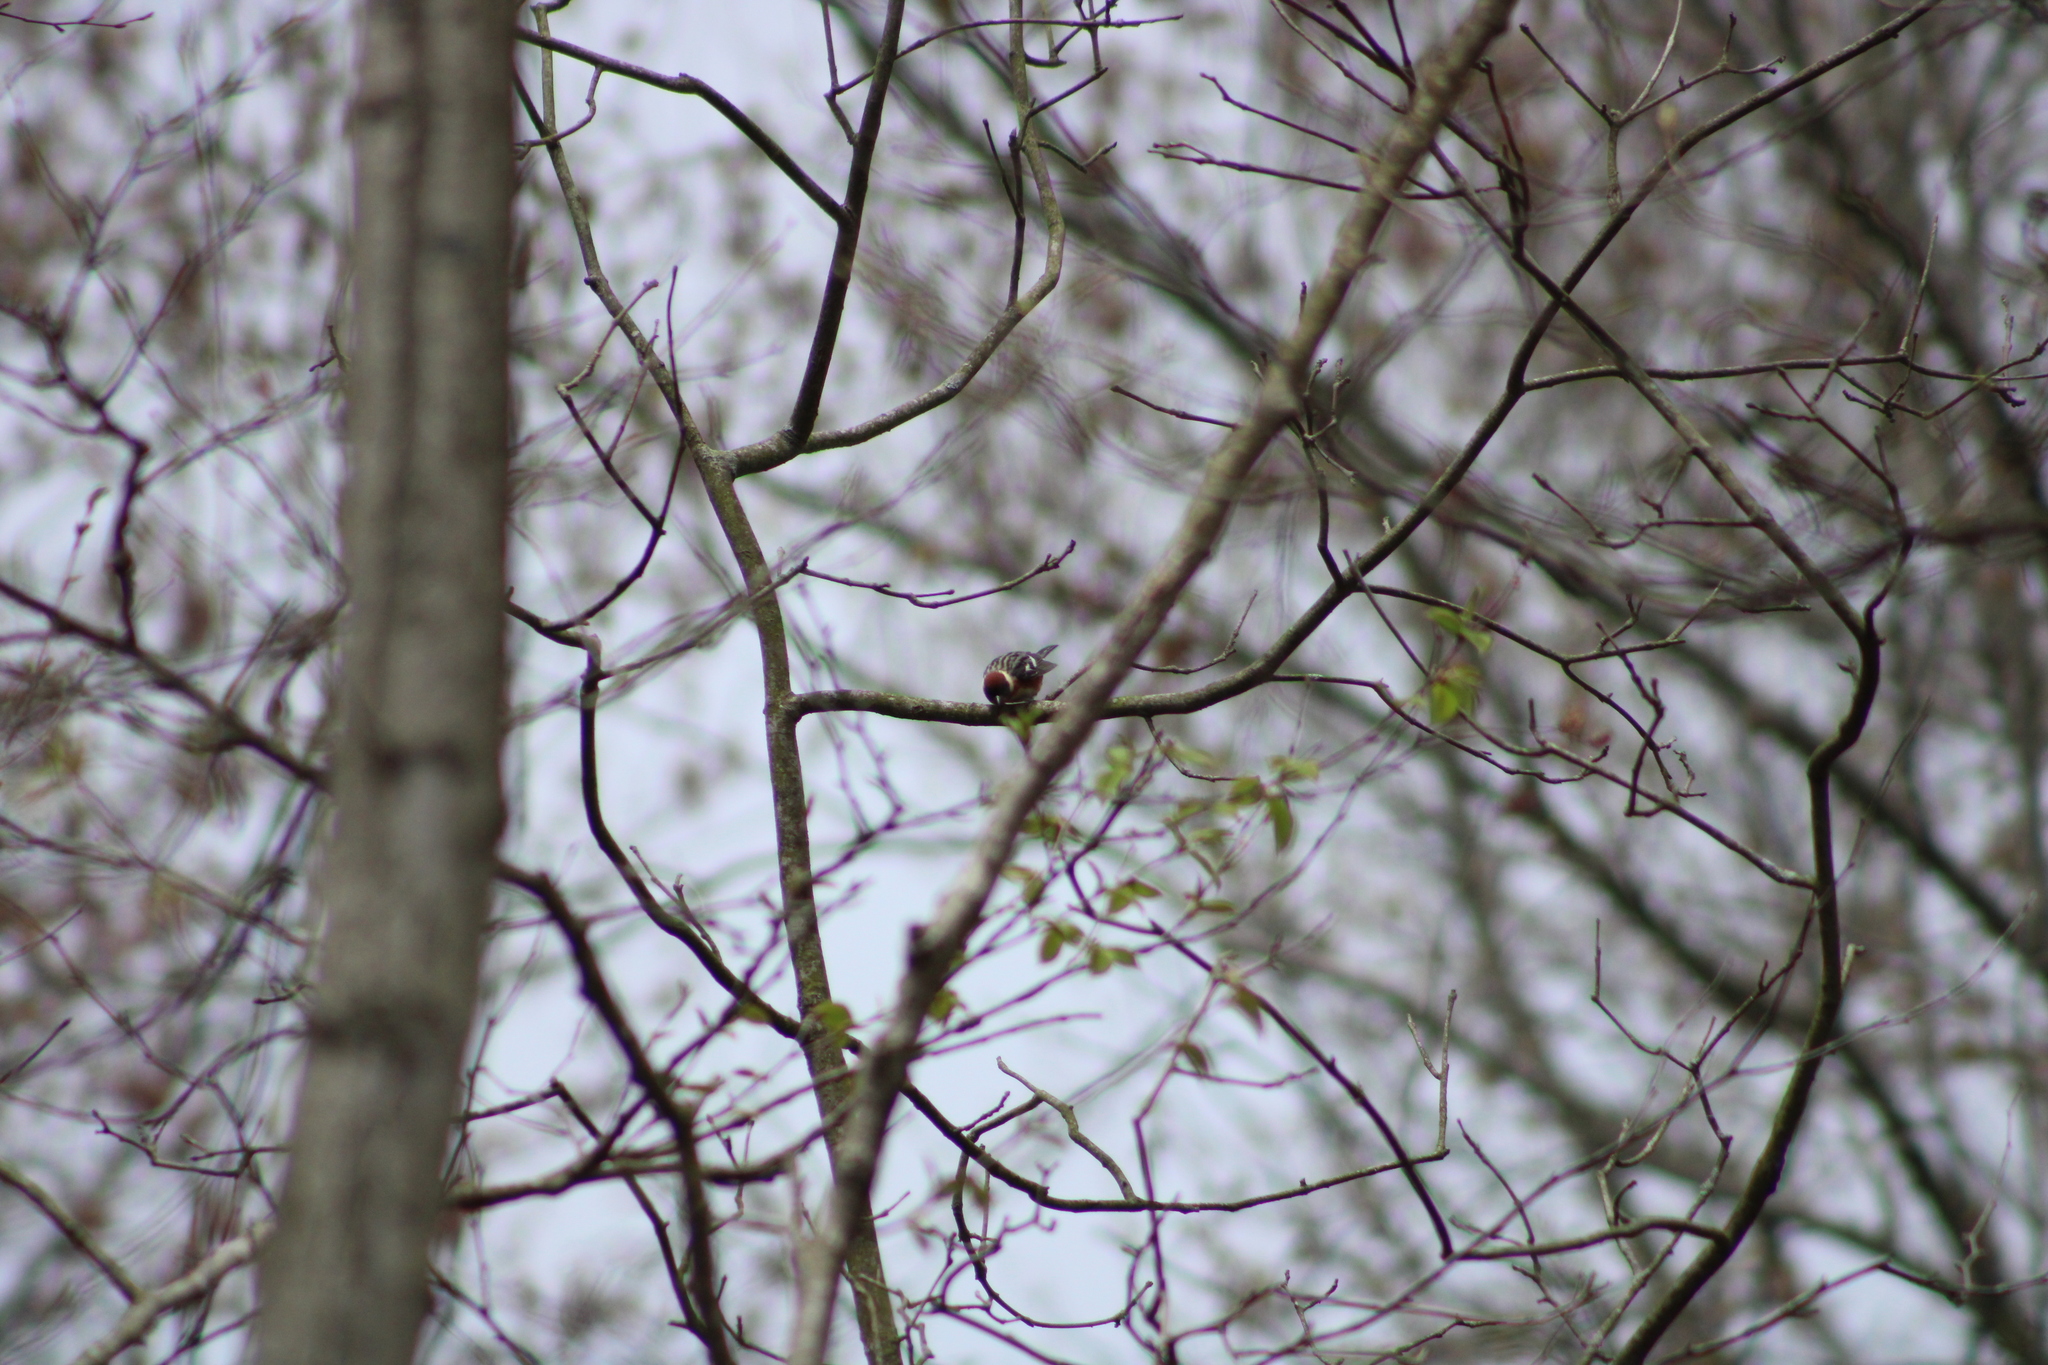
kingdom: Animalia
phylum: Chordata
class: Aves
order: Passeriformes
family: Parulidae
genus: Setophaga
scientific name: Setophaga castanea
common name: Bay-breasted warbler
